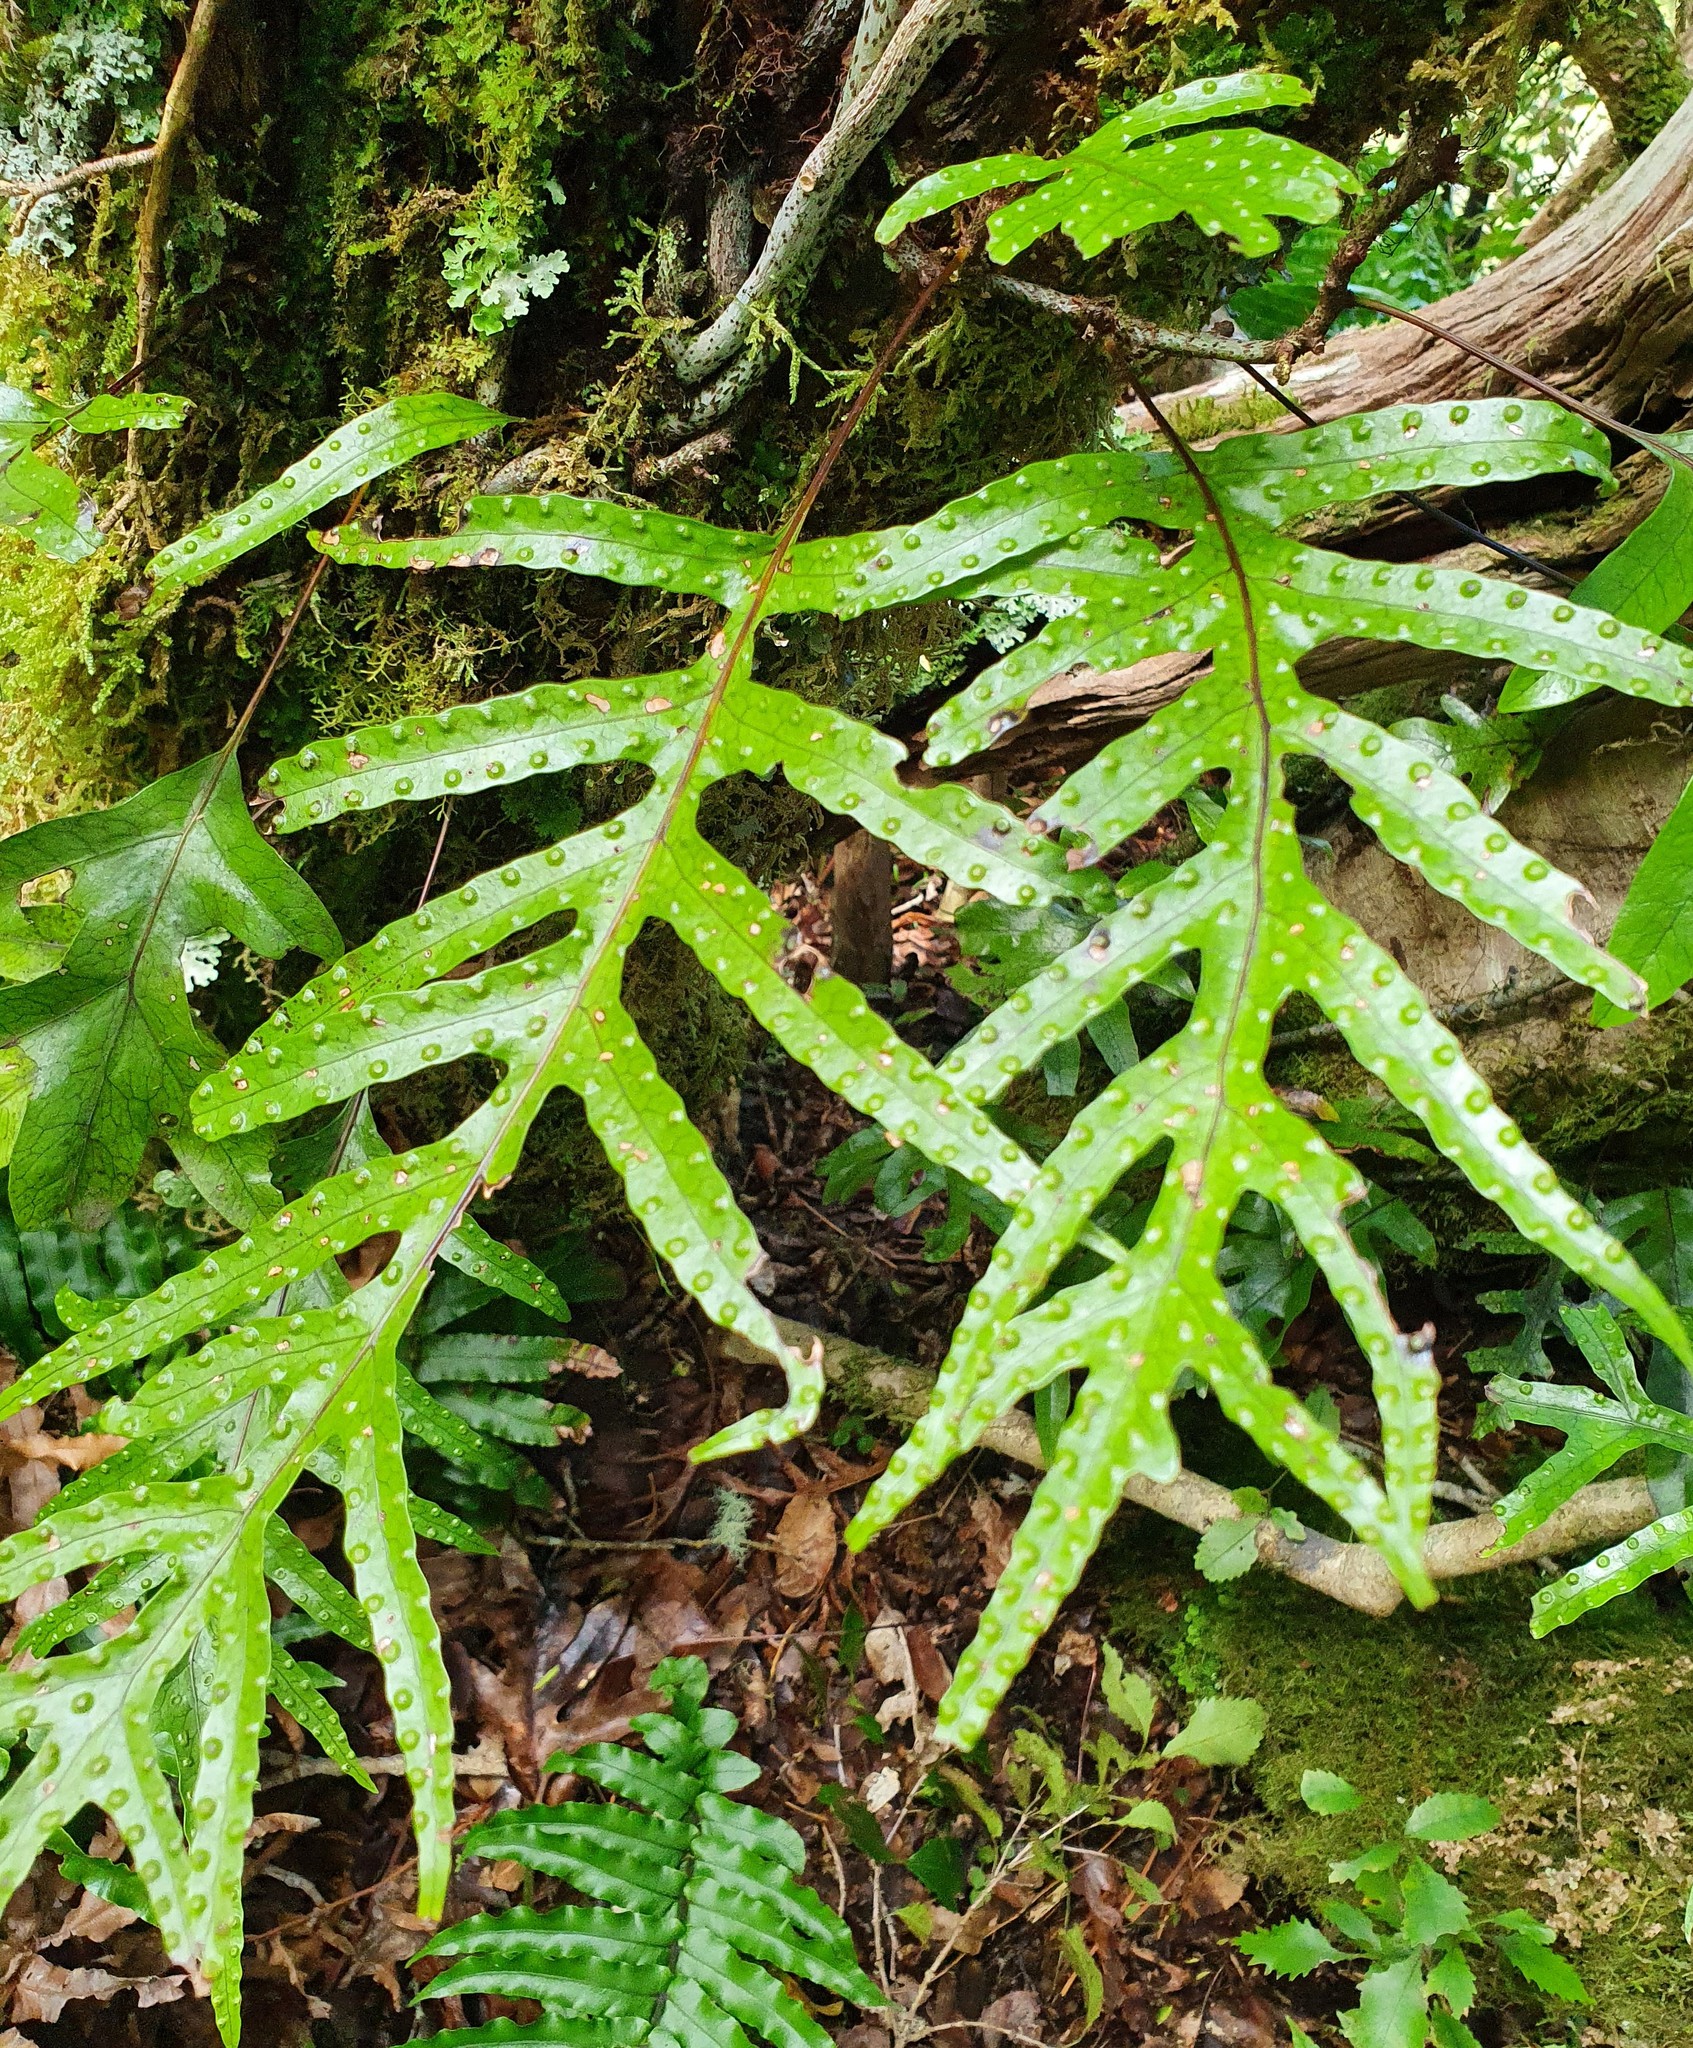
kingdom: Plantae
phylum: Tracheophyta
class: Polypodiopsida
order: Polypodiales
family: Polypodiaceae
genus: Lecanopteris
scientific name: Lecanopteris pustulata
